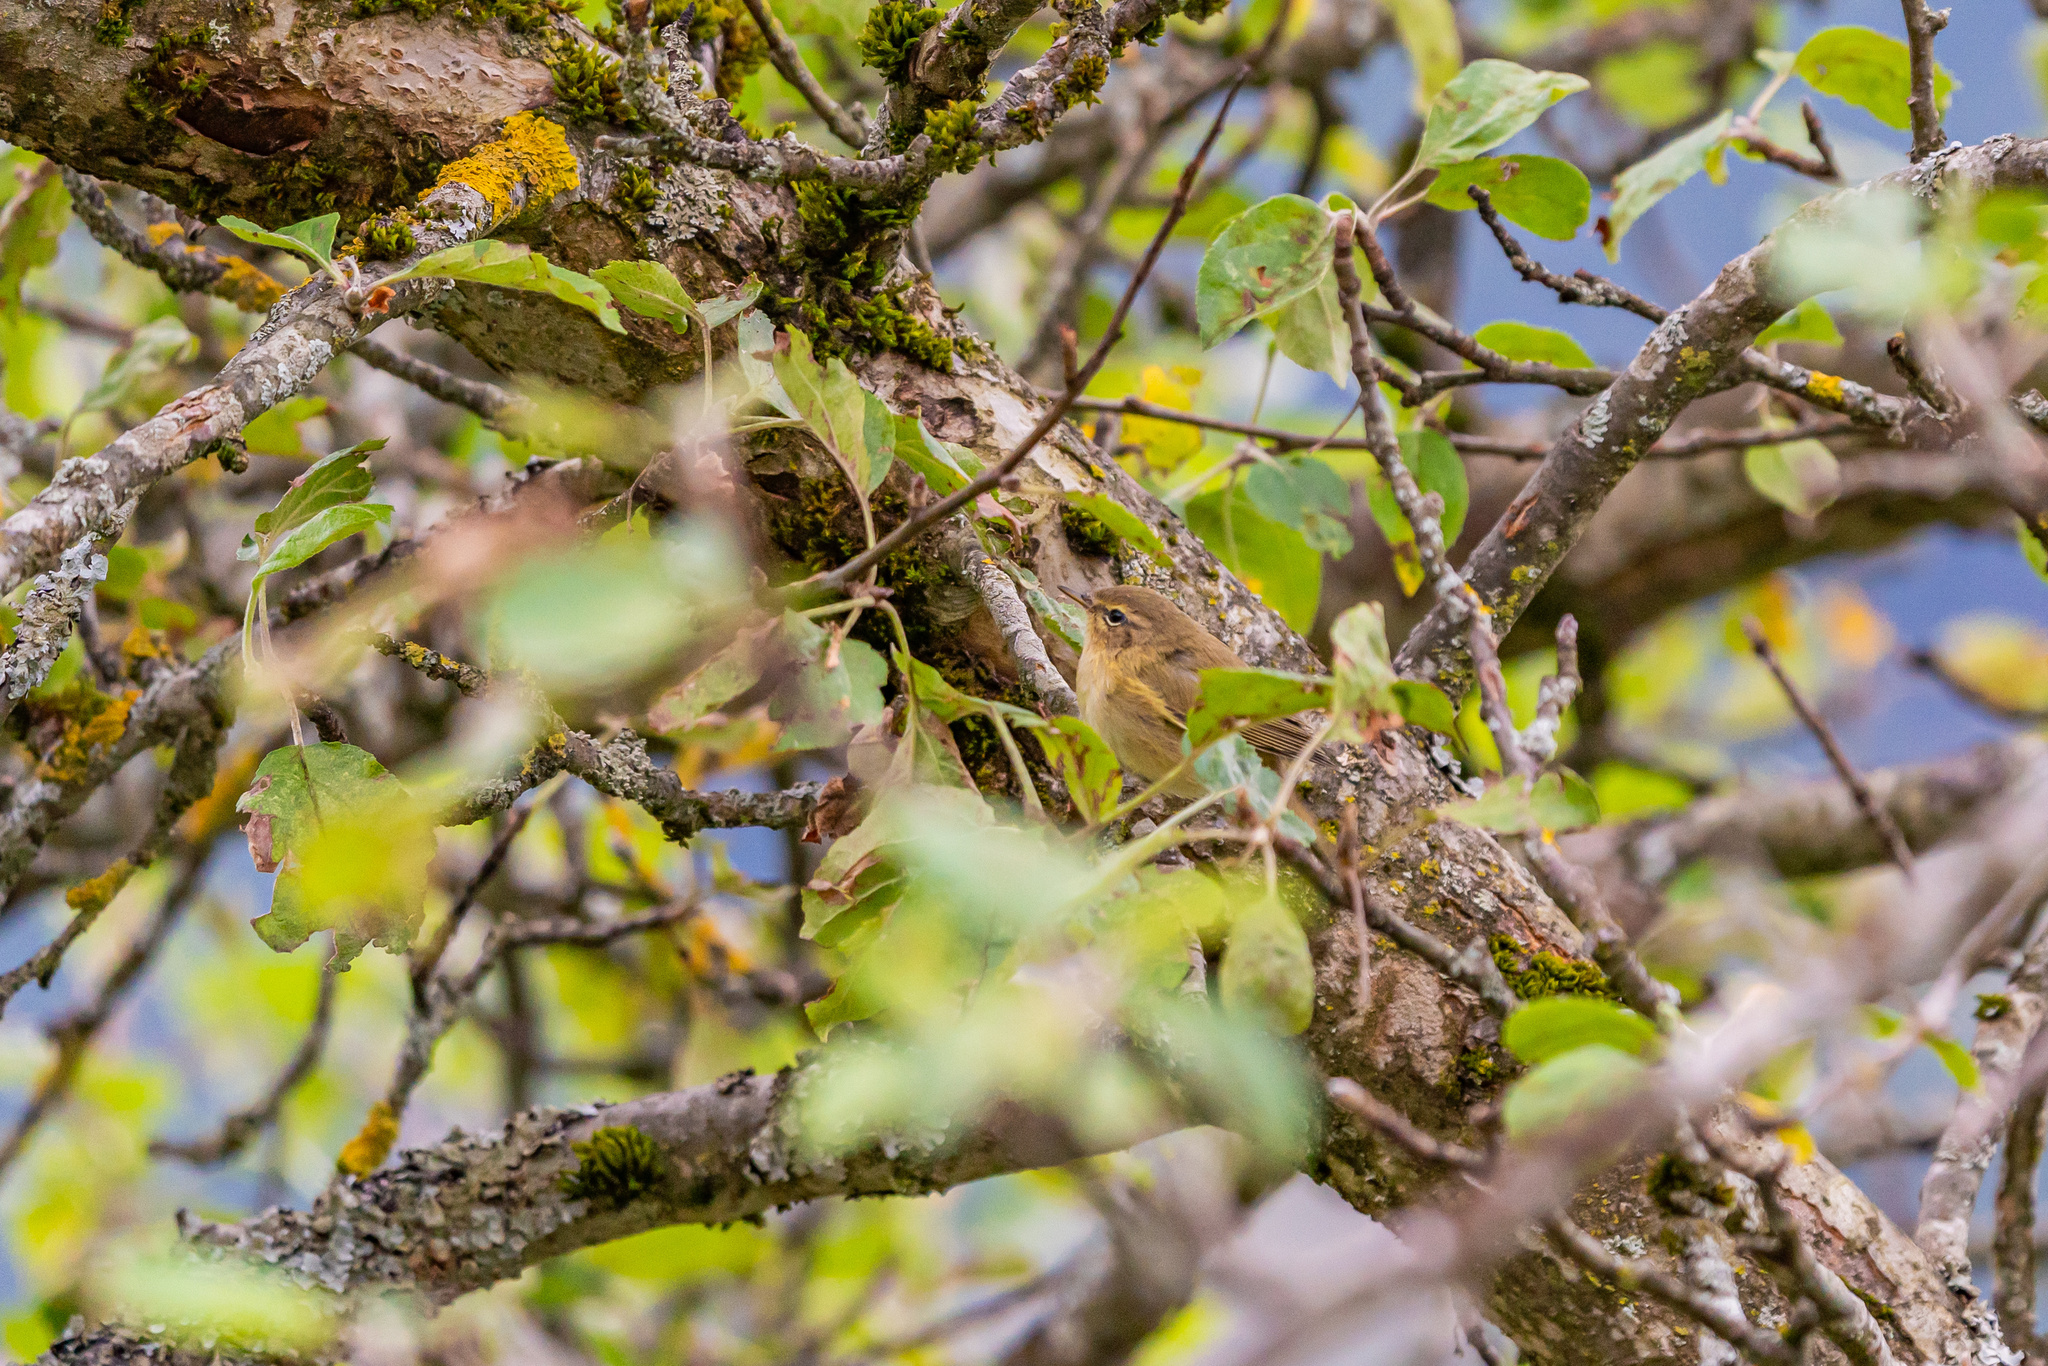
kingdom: Animalia
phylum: Chordata
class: Aves
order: Passeriformes
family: Phylloscopidae
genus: Phylloscopus
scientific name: Phylloscopus collybita
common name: Common chiffchaff
